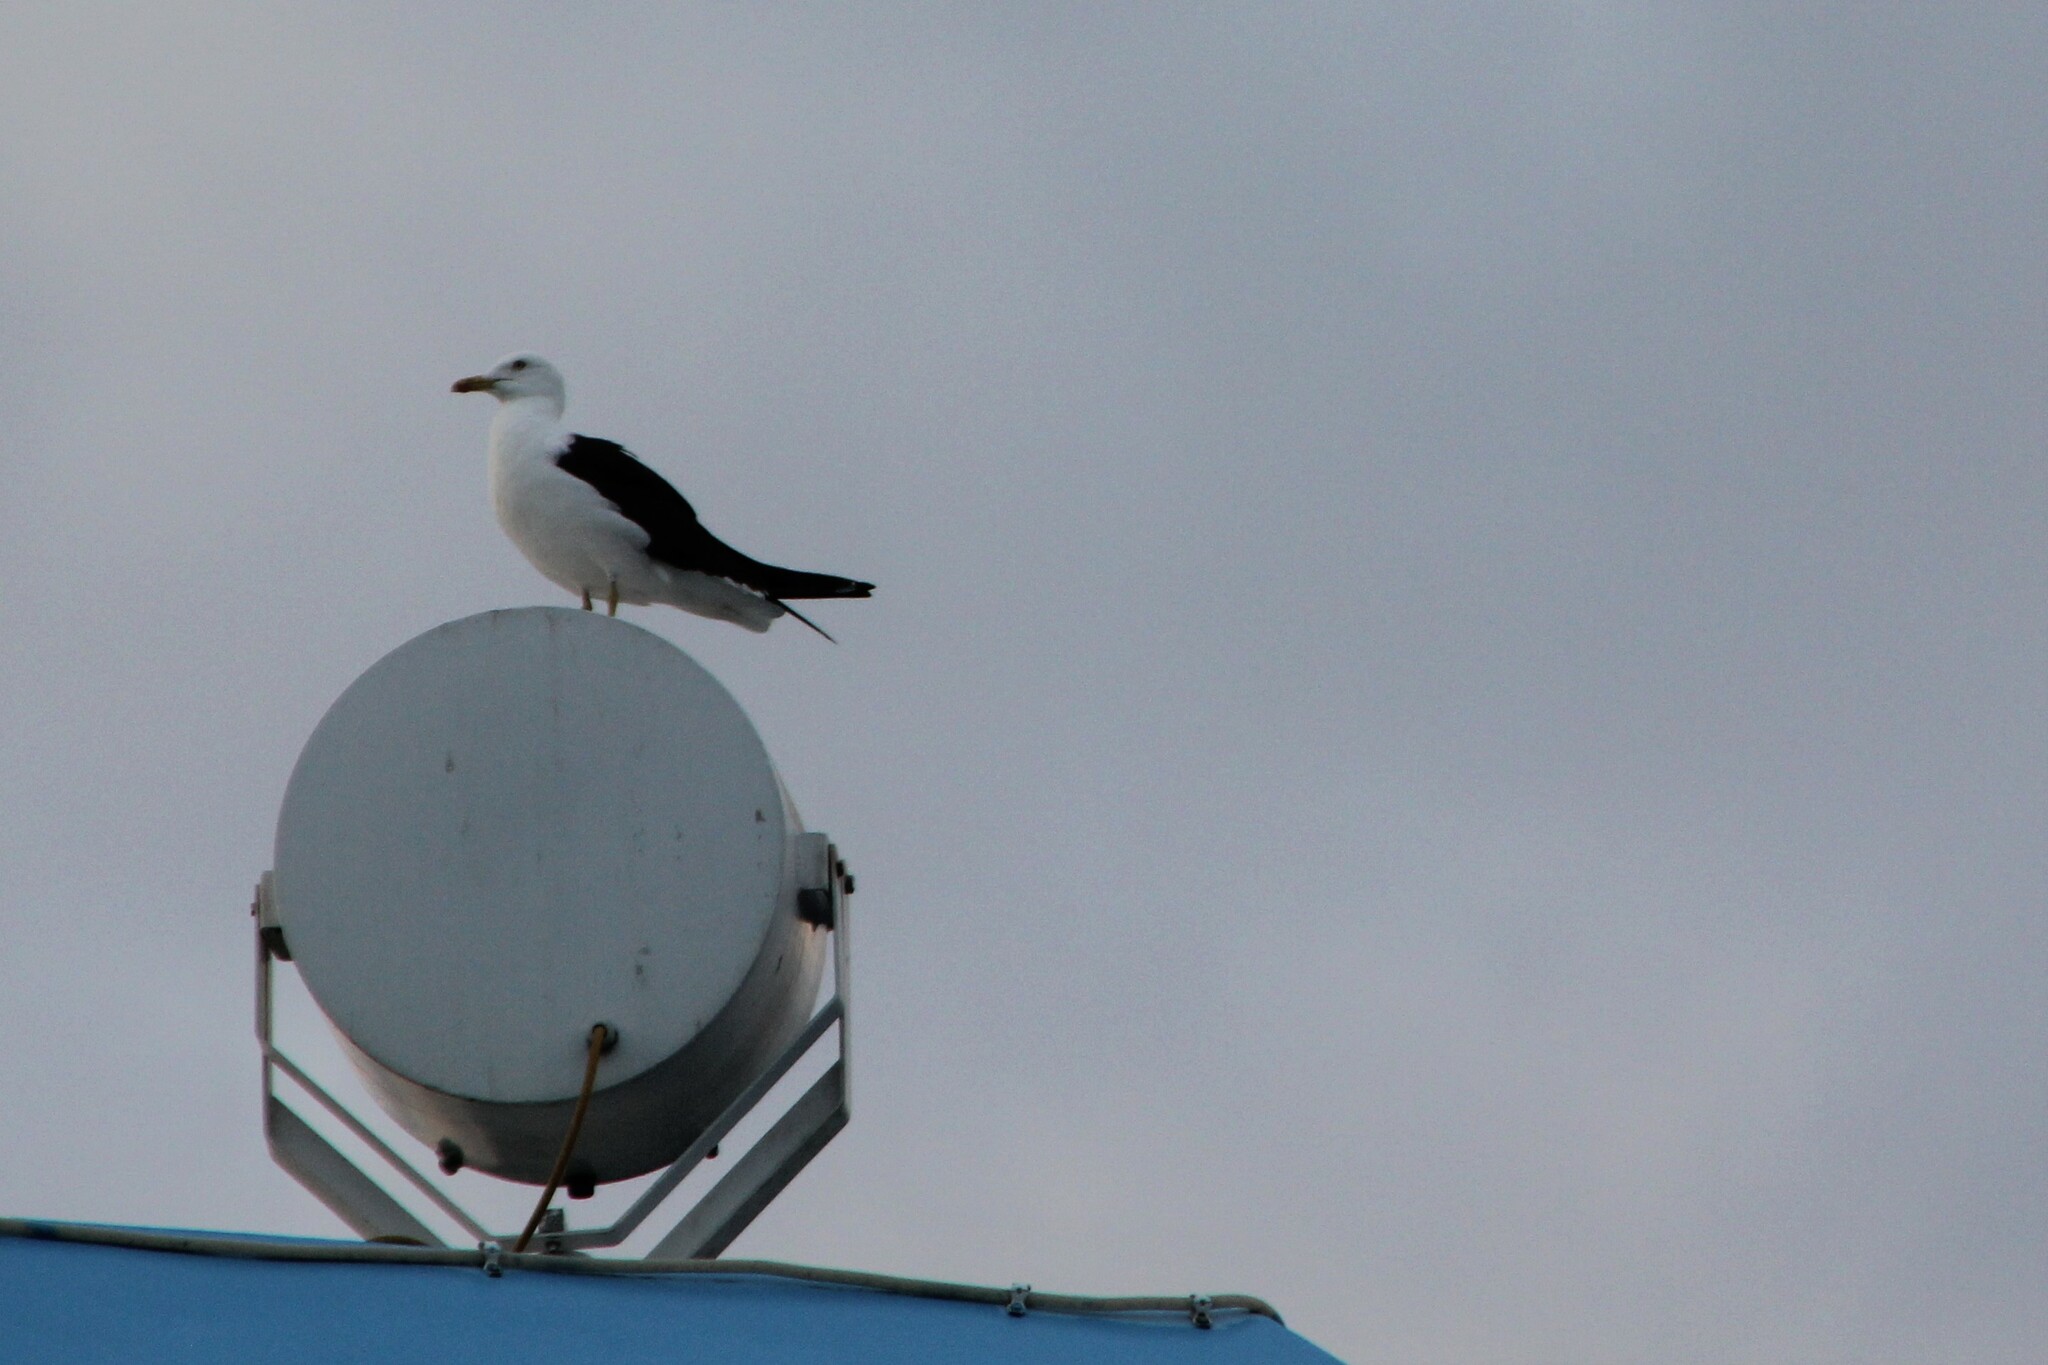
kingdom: Animalia
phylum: Chordata
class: Aves
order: Charadriiformes
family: Laridae
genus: Larus
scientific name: Larus fuscus
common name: Lesser black-backed gull
